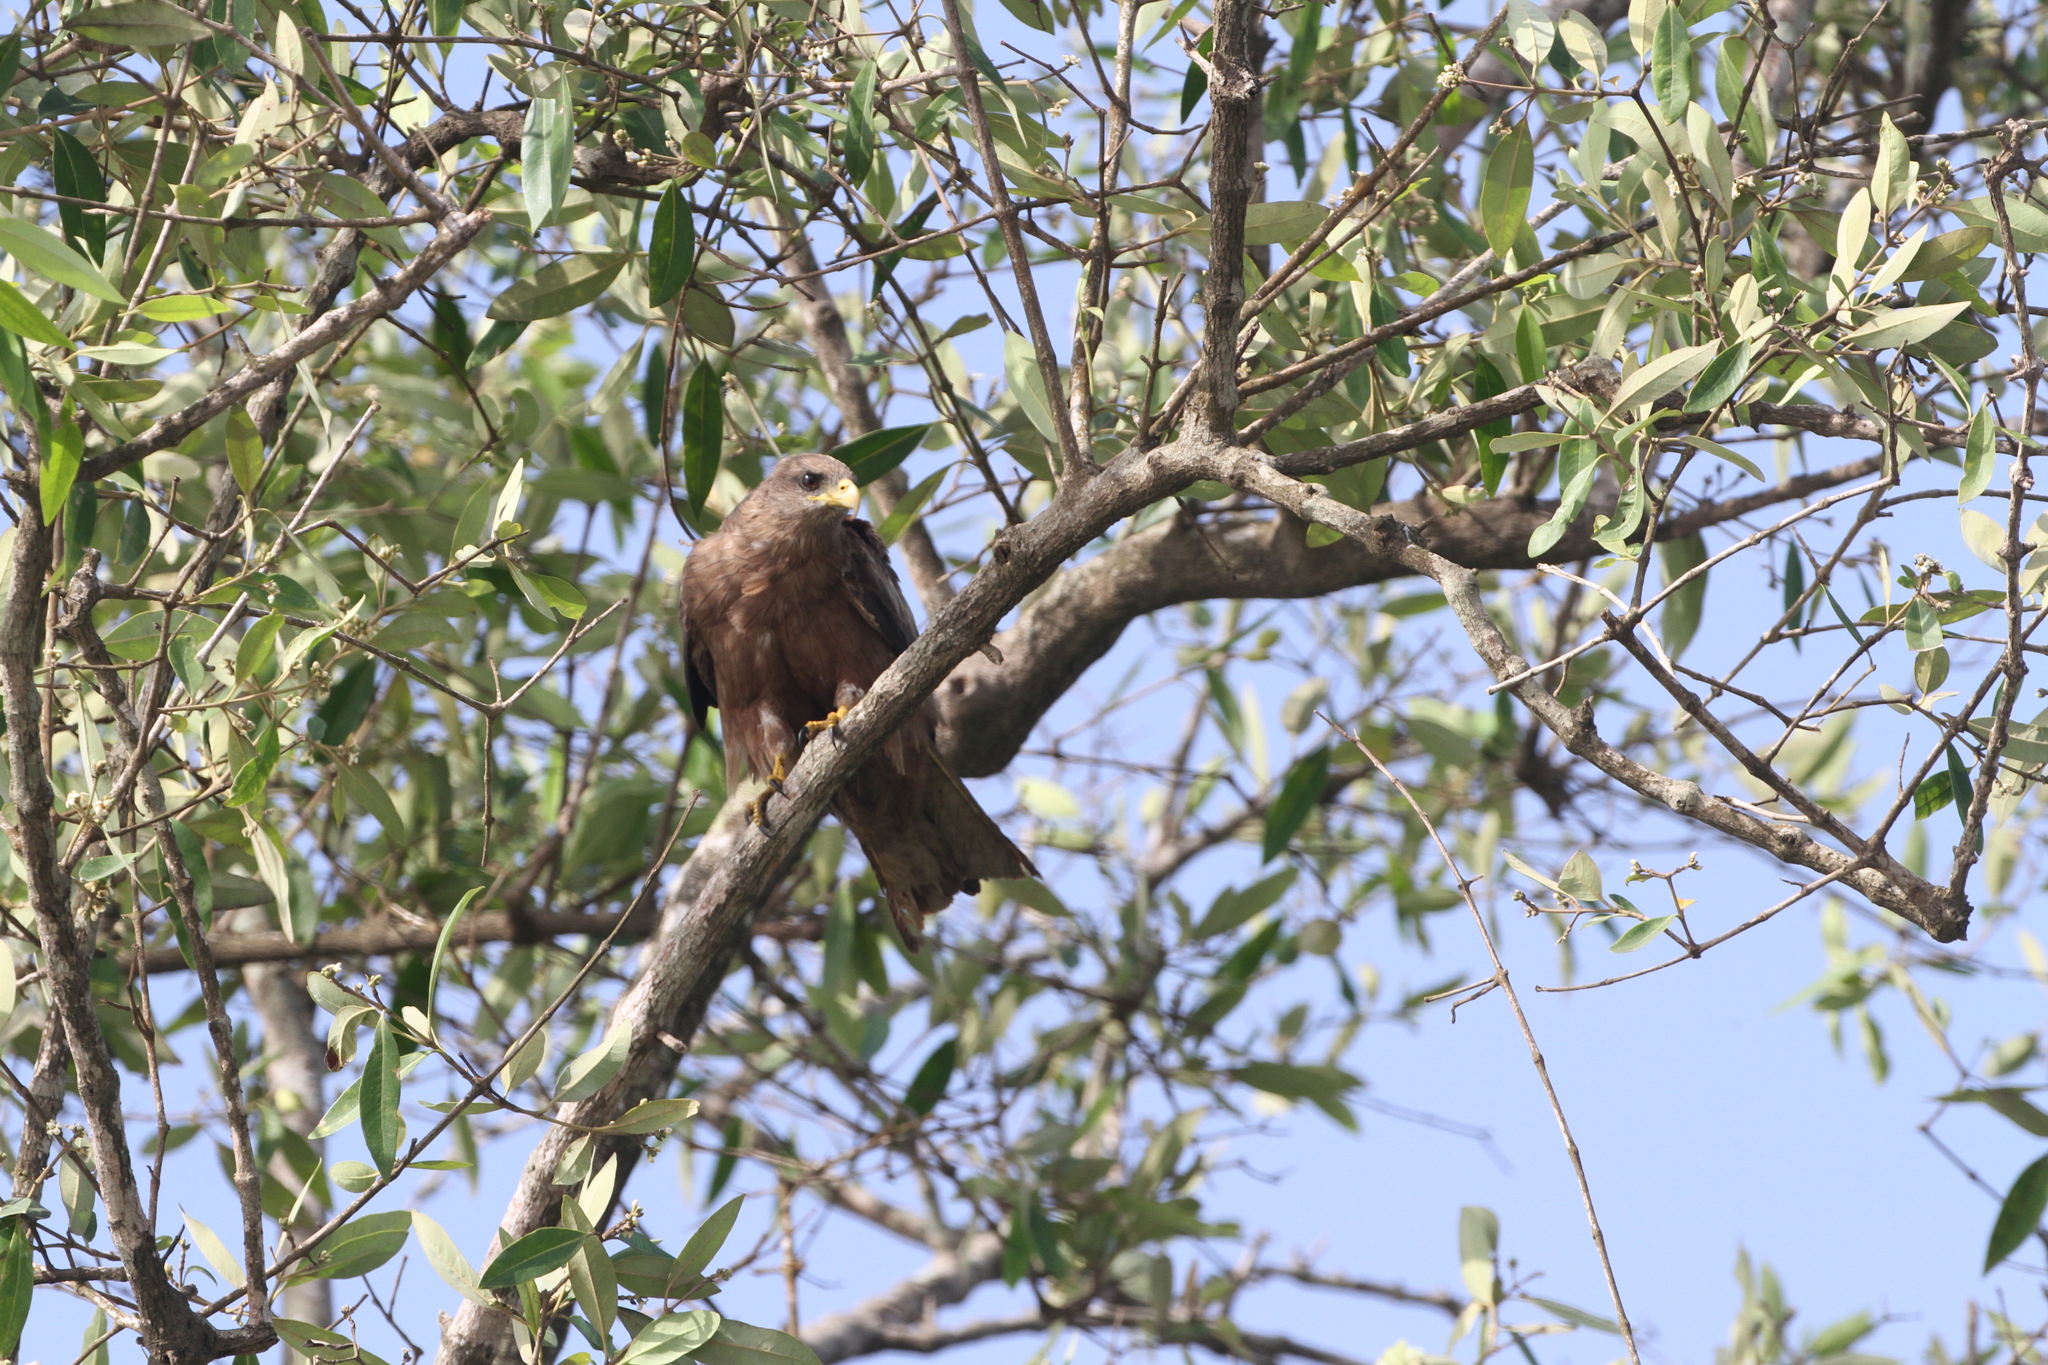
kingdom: Animalia
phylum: Chordata
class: Aves
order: Accipitriformes
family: Accipitridae
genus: Milvus
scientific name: Milvus migrans
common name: Black kite
